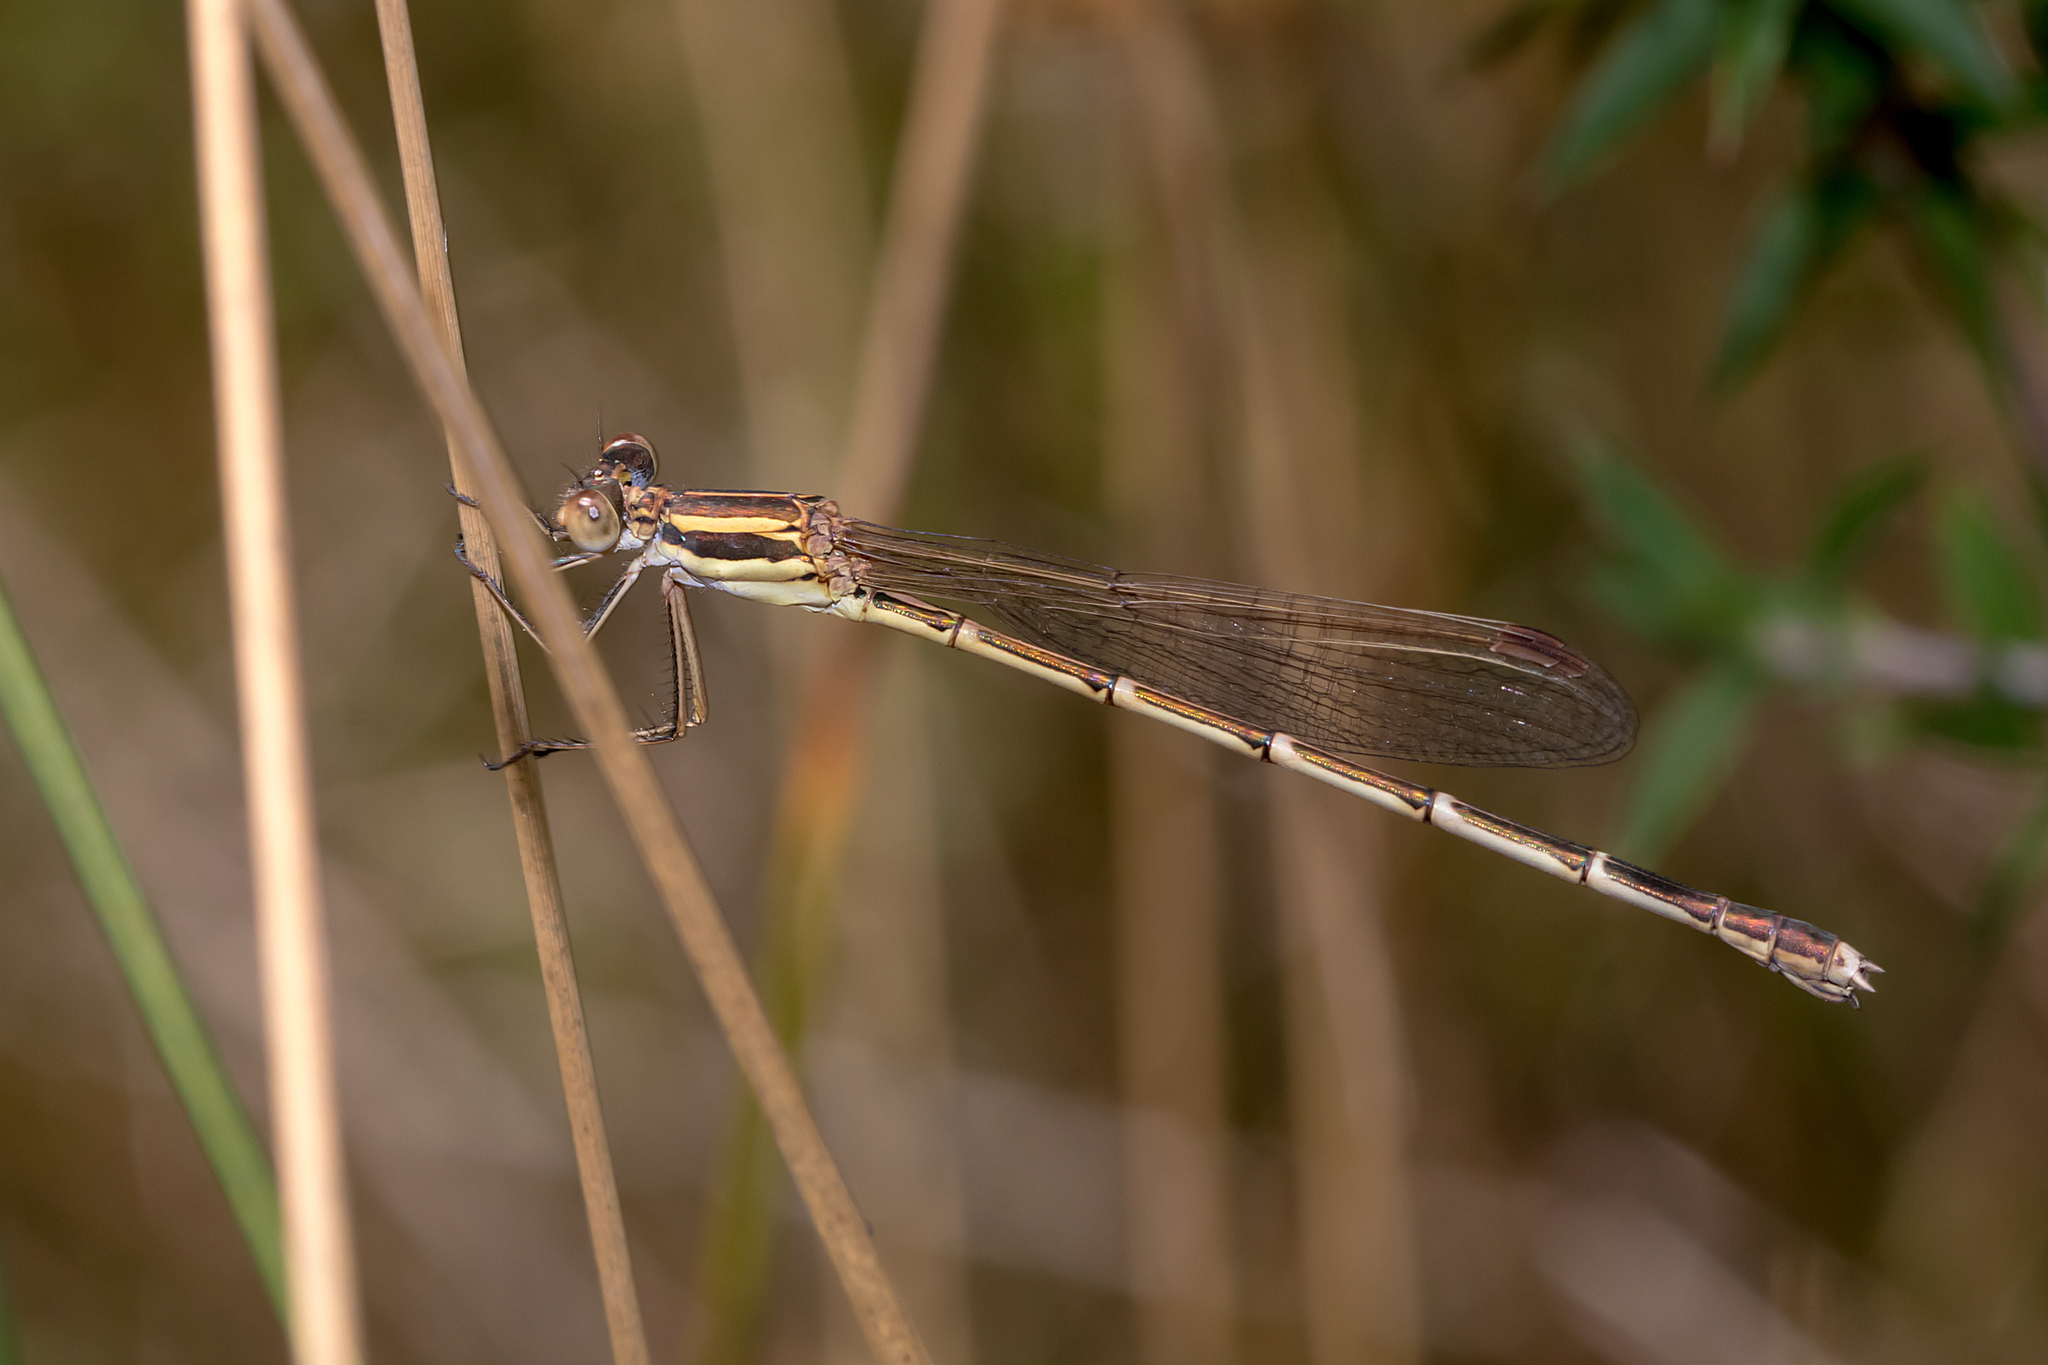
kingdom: Animalia
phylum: Arthropoda
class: Insecta
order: Odonata
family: Lestidae
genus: Austrolestes
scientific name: Austrolestes analis
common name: Slender ringtail
